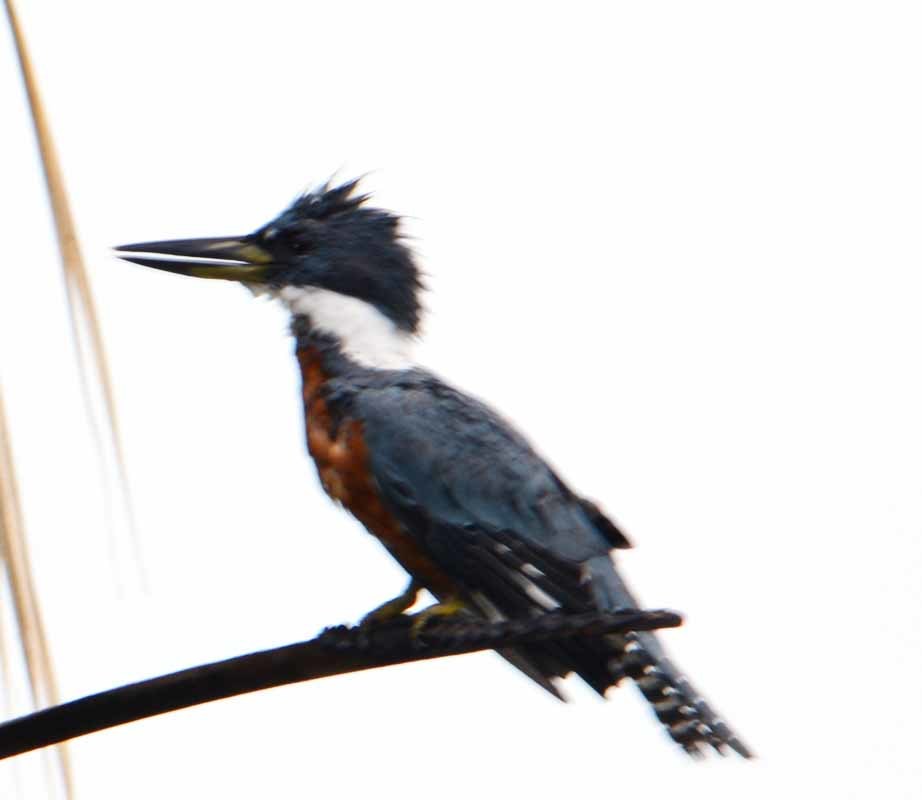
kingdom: Animalia
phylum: Chordata
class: Aves
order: Coraciiformes
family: Alcedinidae
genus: Megaceryle
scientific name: Megaceryle torquata
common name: Ringed kingfisher
